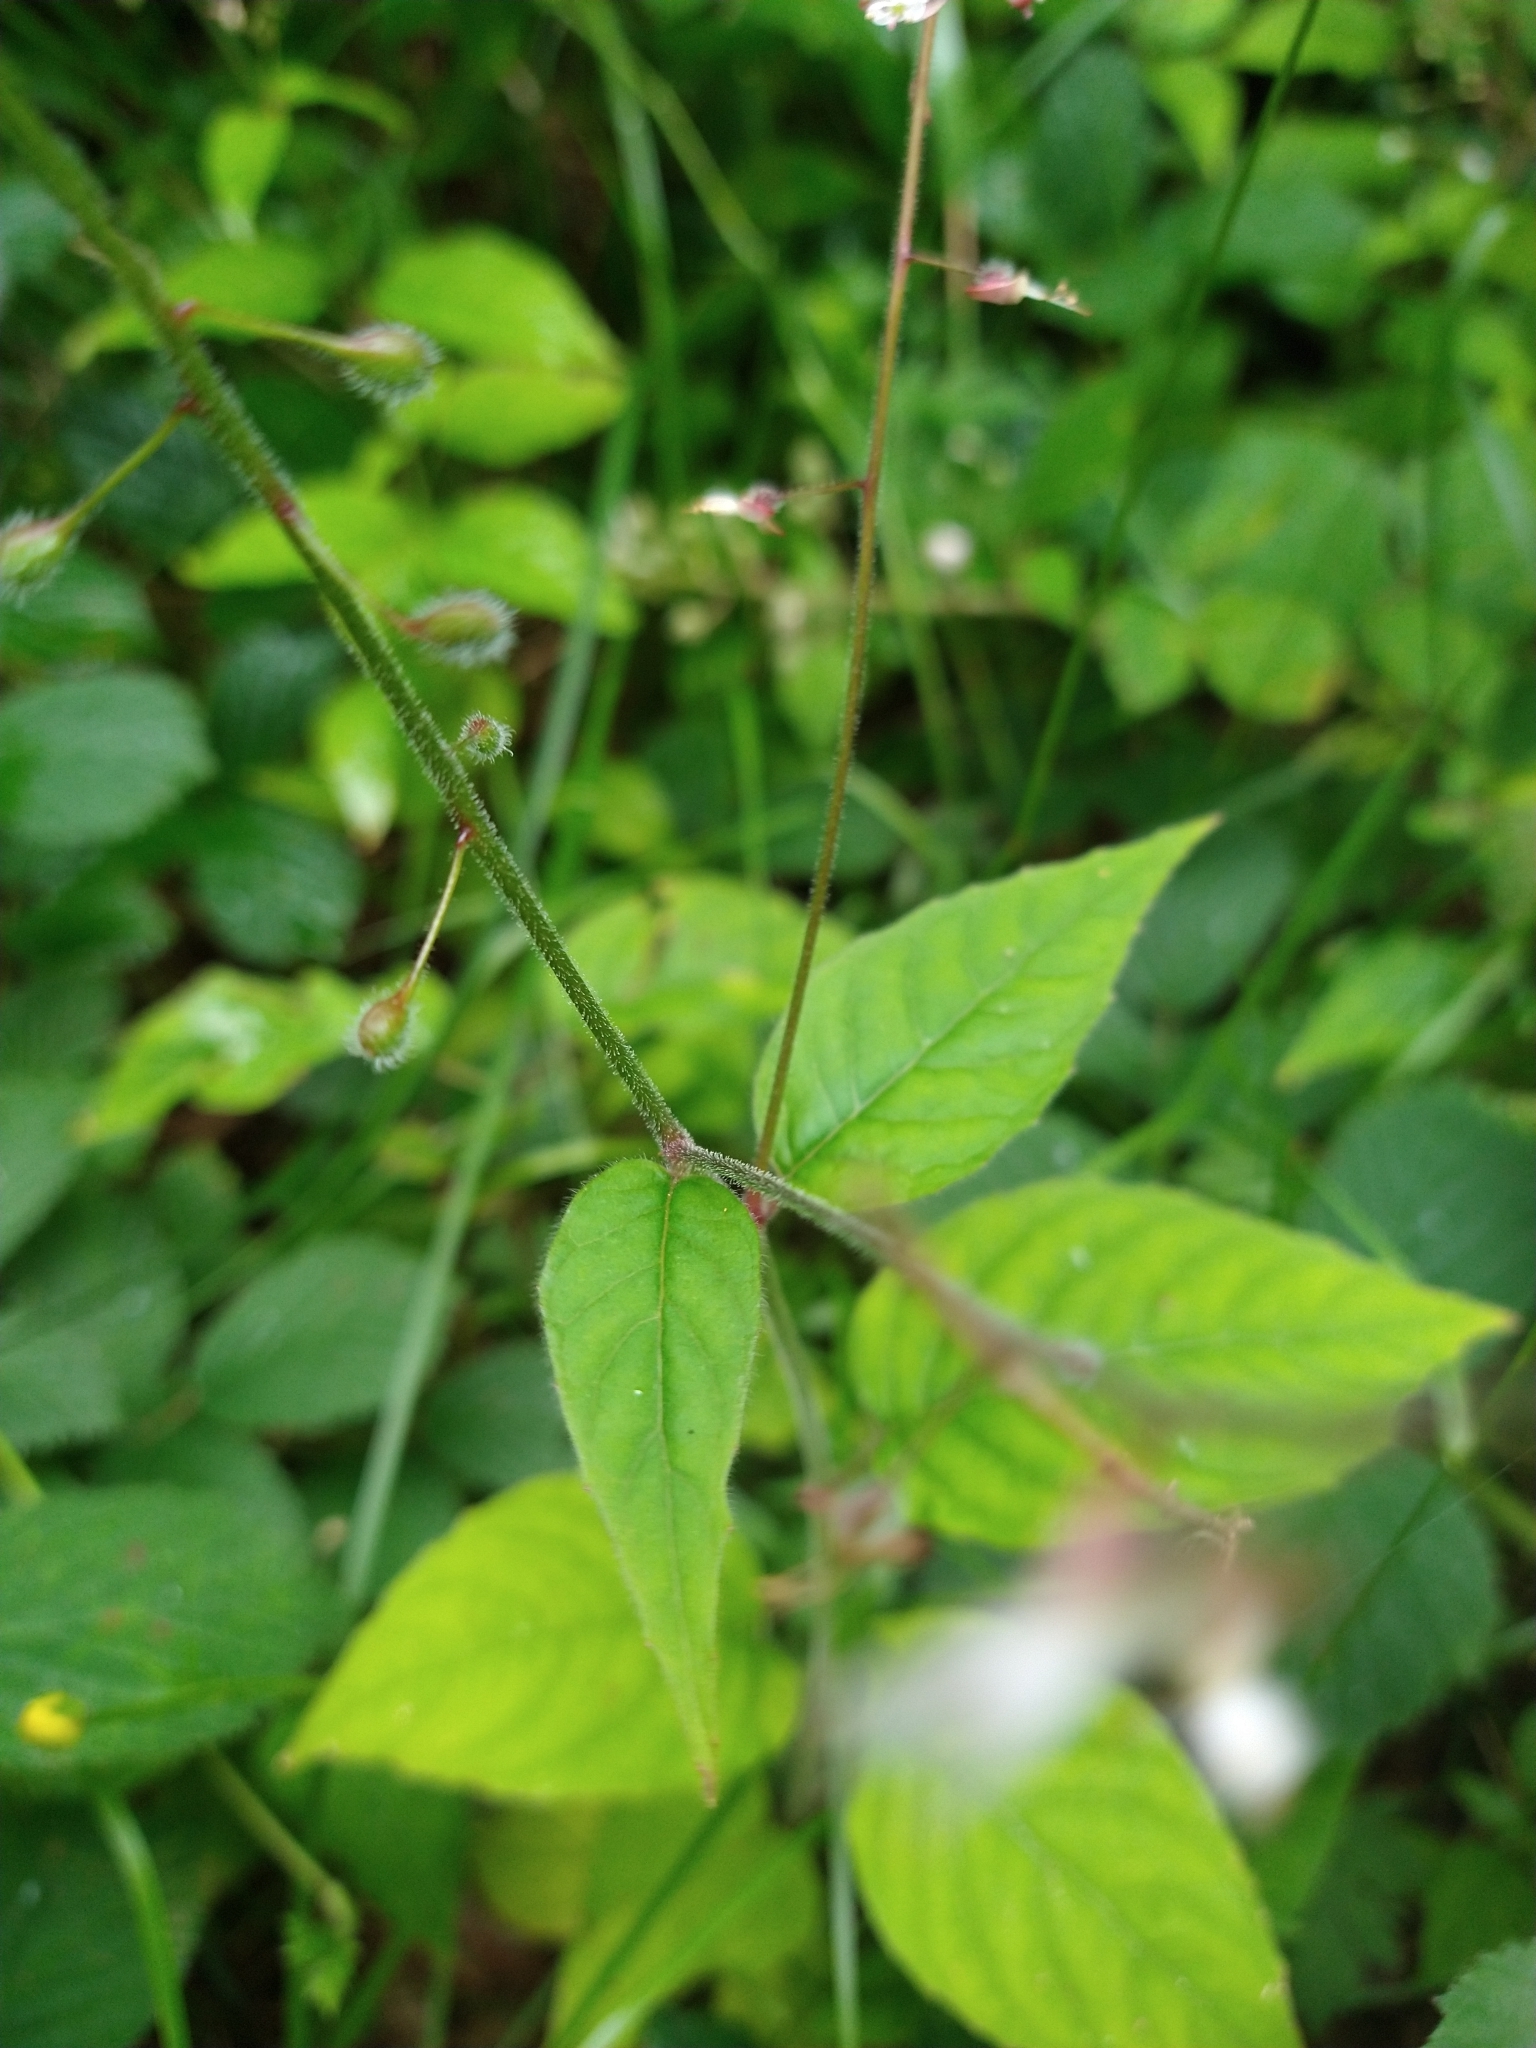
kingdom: Plantae
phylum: Tracheophyta
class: Magnoliopsida
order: Myrtales
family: Onagraceae
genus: Circaea
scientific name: Circaea lutetiana
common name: Enchanter's-nightshade
